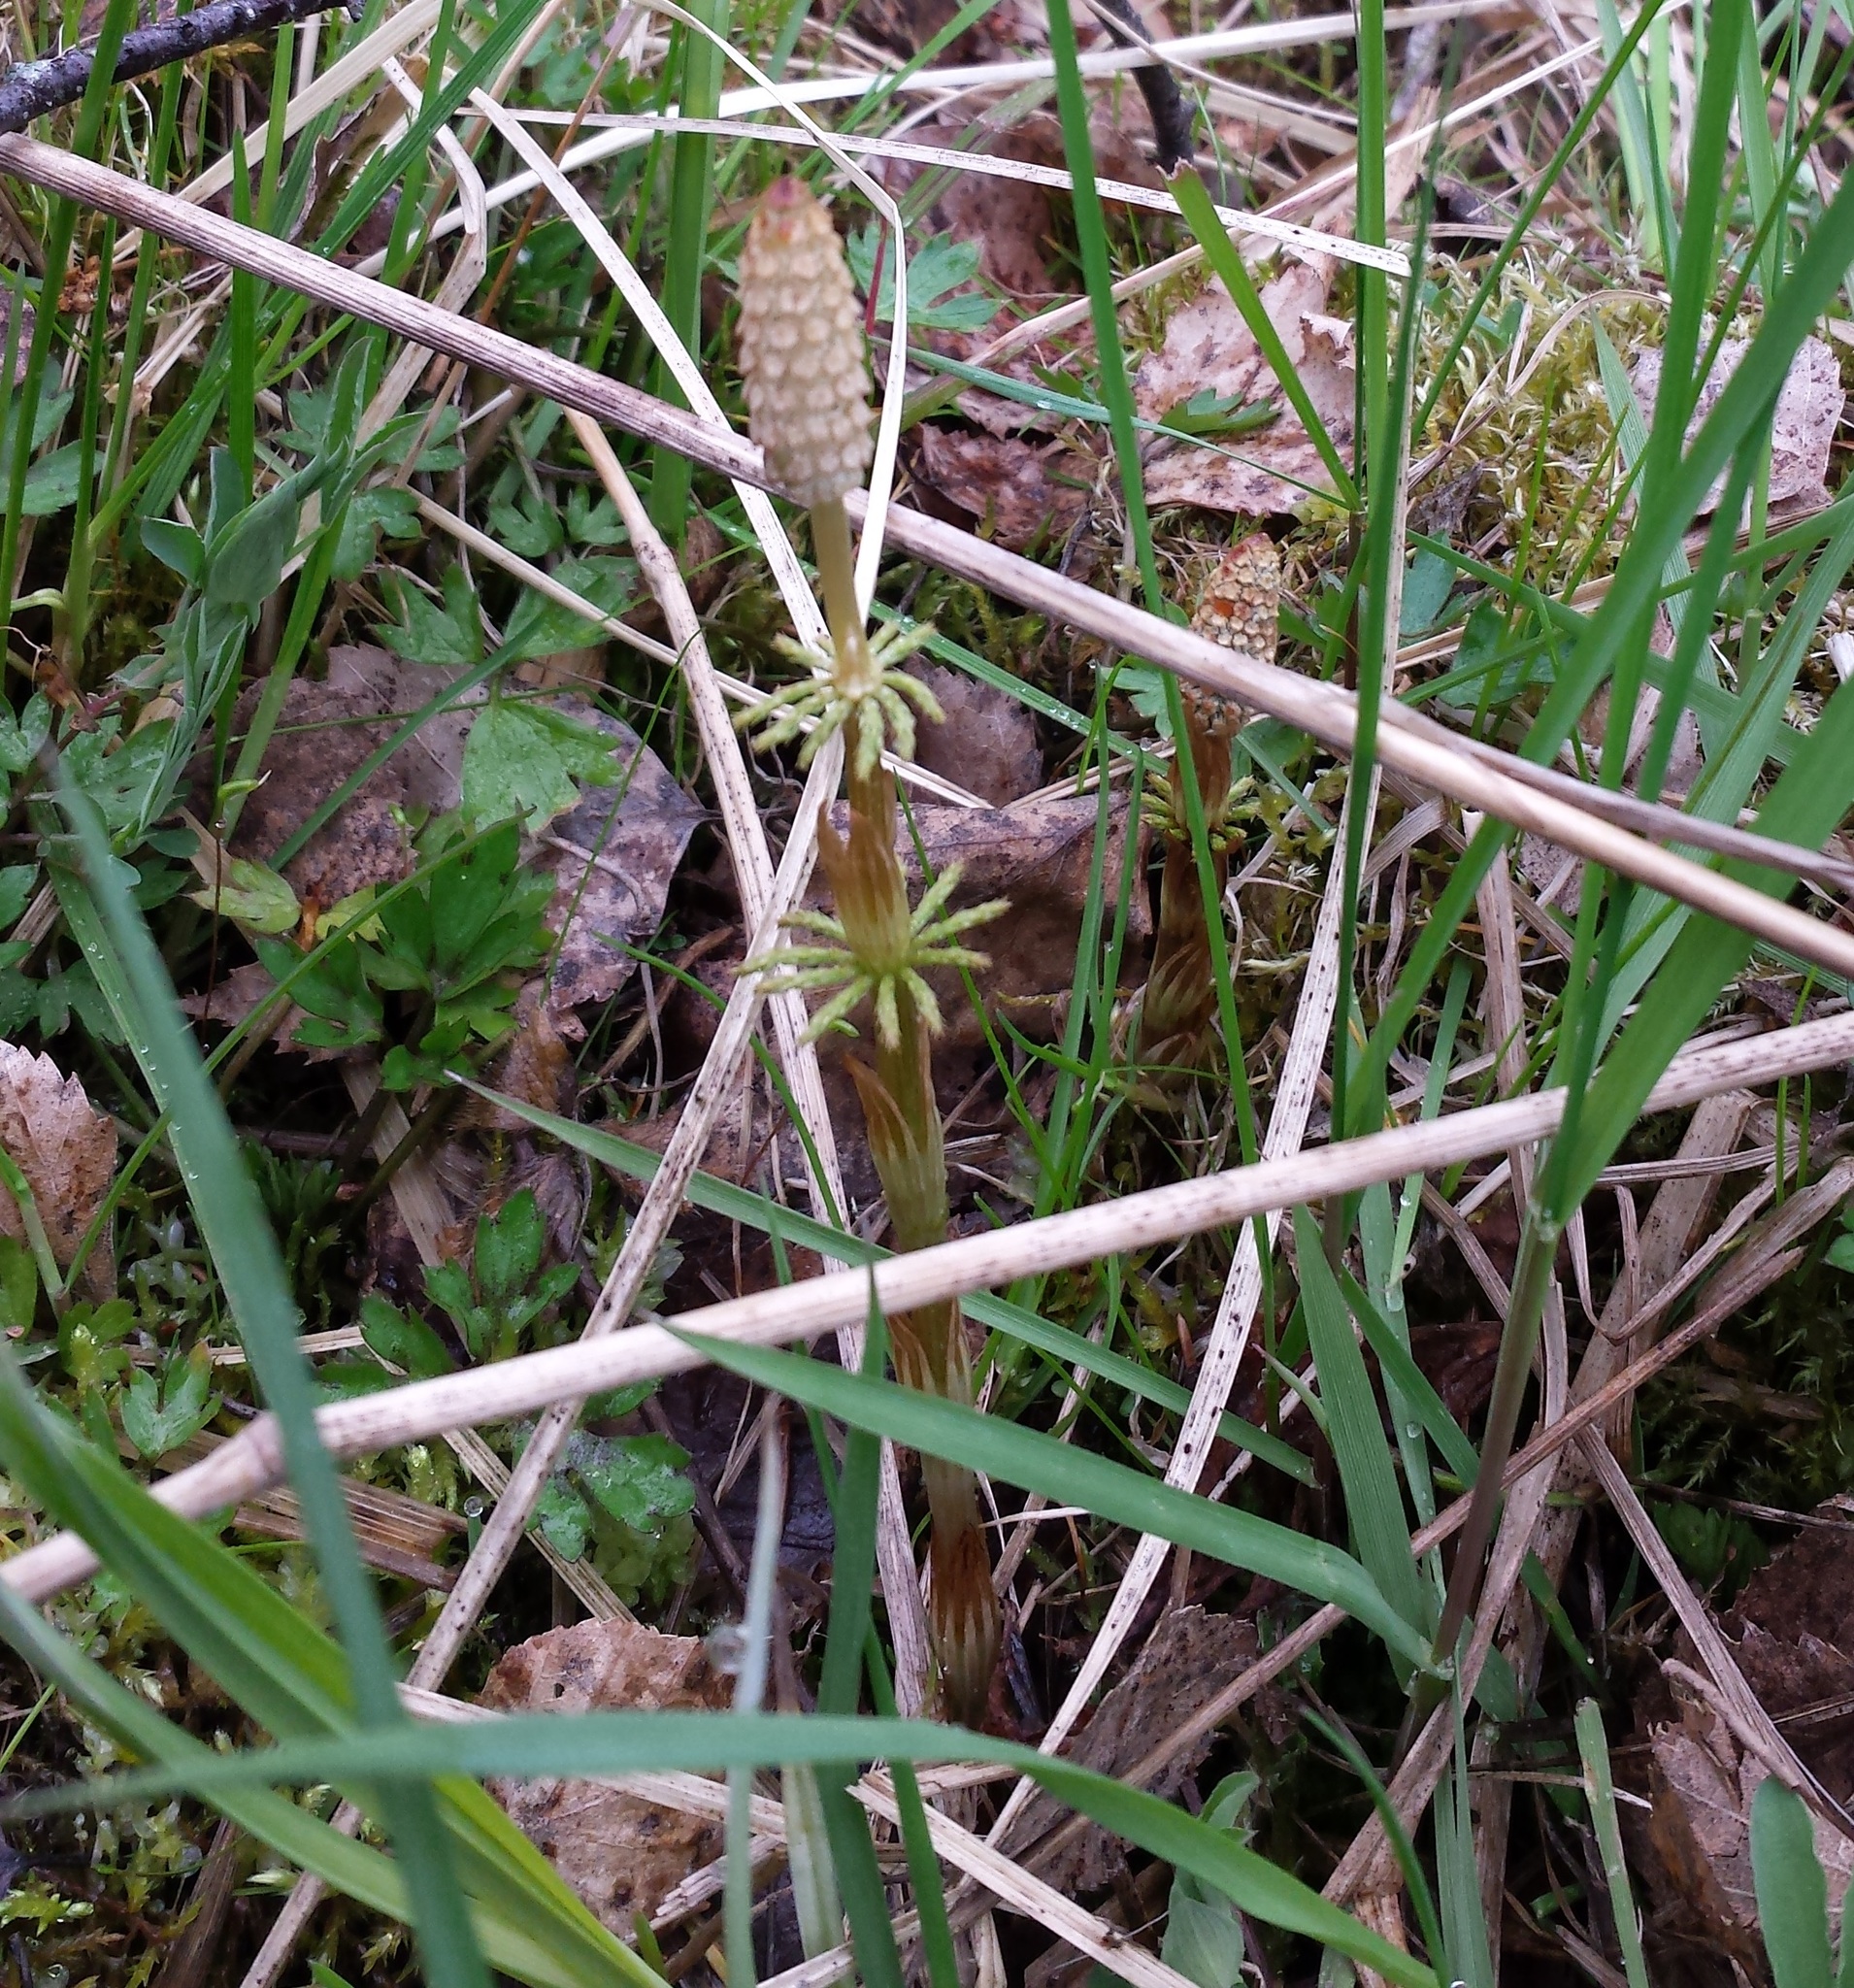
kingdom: Plantae
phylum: Tracheophyta
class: Polypodiopsida
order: Equisetales
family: Equisetaceae
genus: Equisetum
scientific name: Equisetum sylvaticum
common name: Wood horsetail
